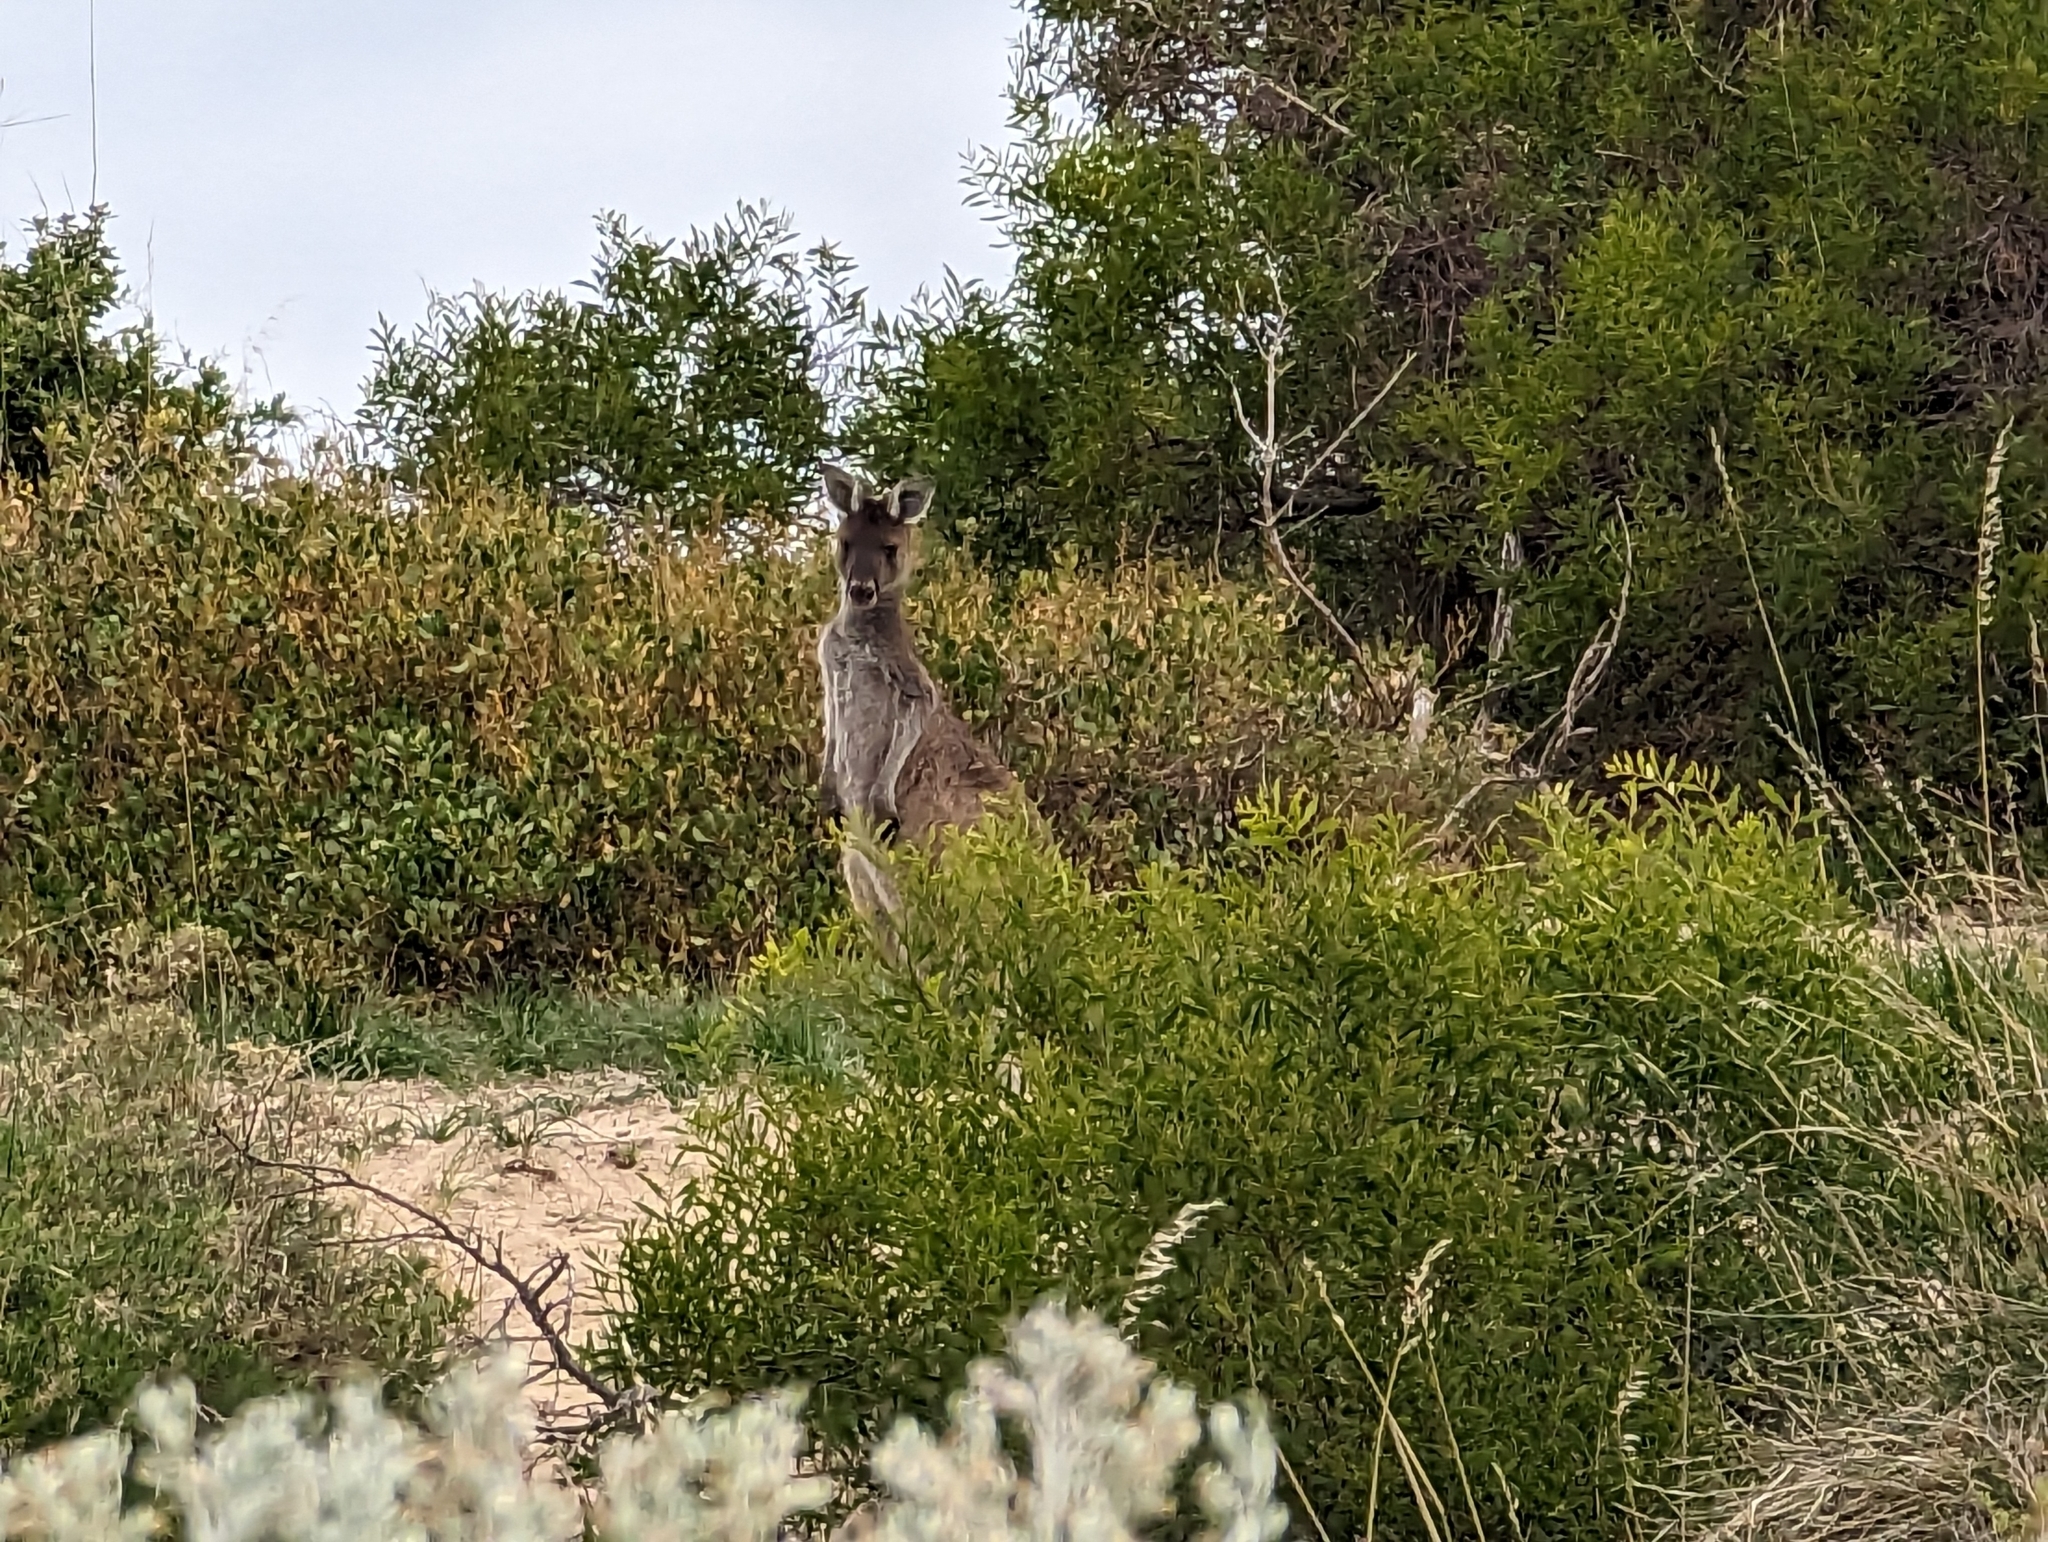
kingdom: Animalia
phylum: Chordata
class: Mammalia
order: Diprotodontia
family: Macropodidae
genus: Macropus
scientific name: Macropus fuliginosus
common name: Western grey kangaroo
